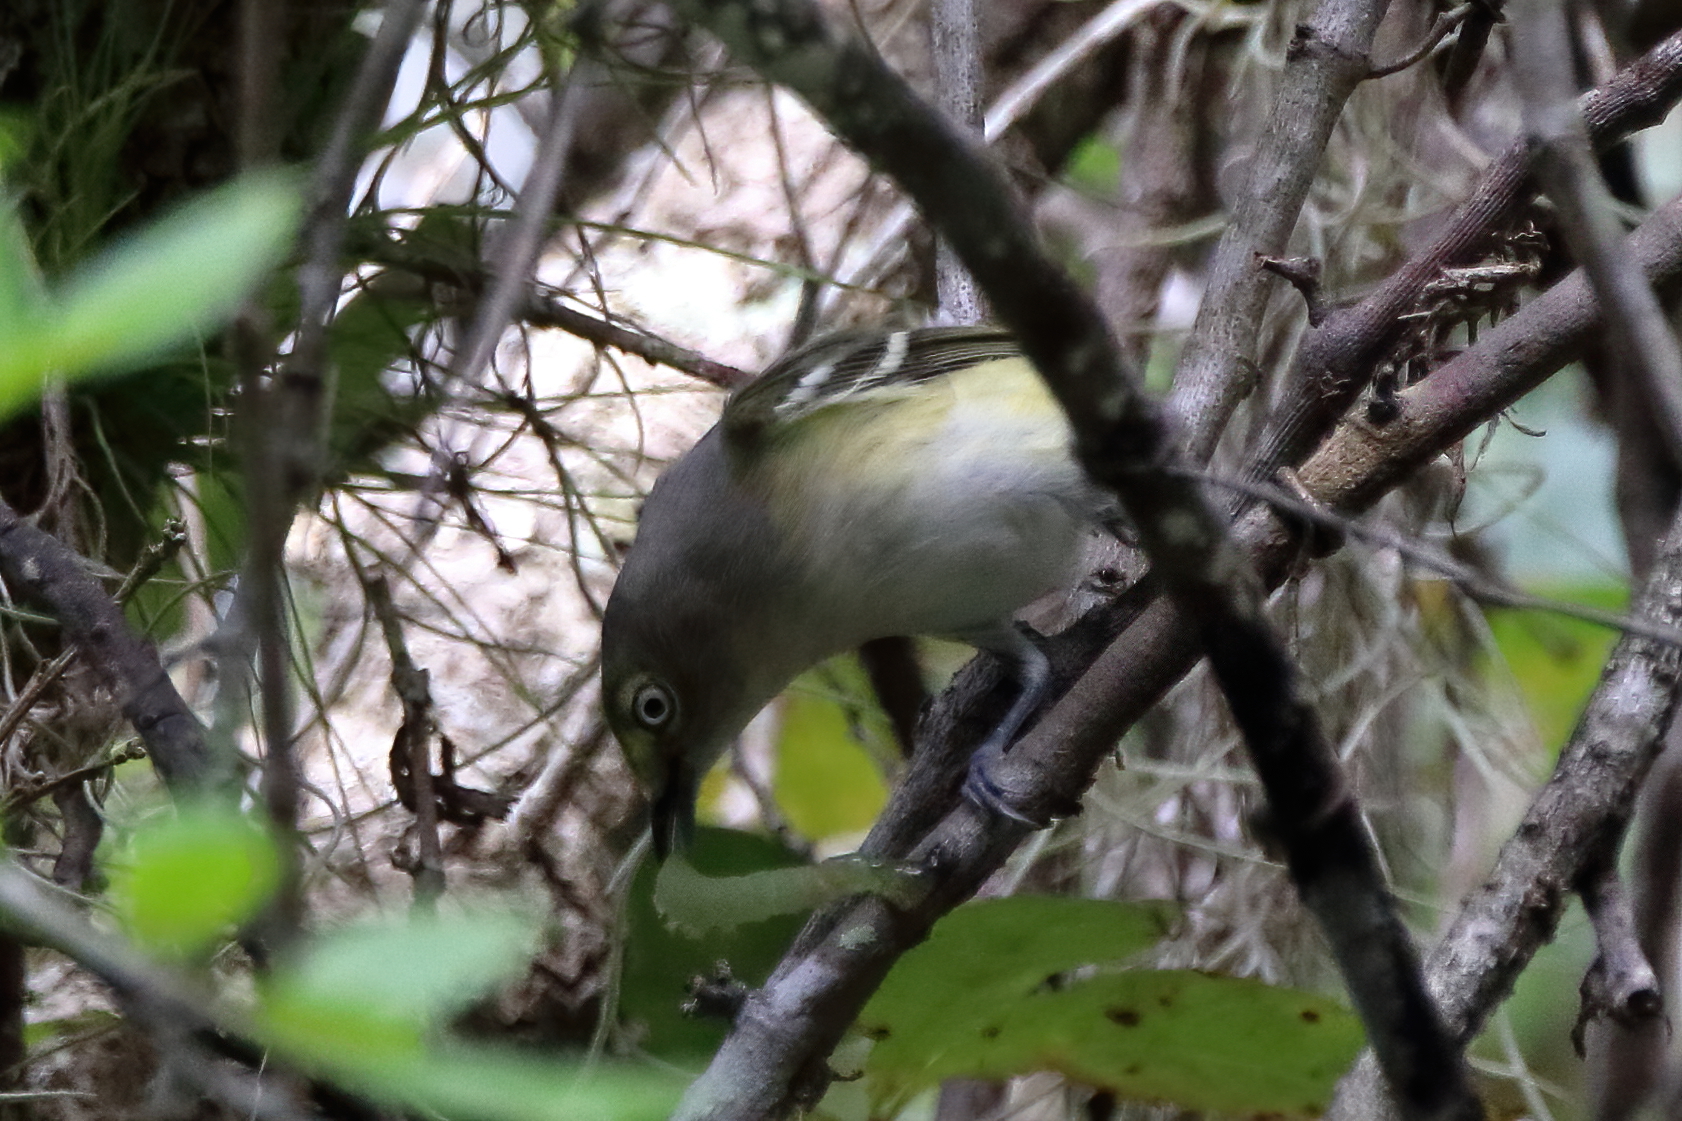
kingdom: Animalia
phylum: Chordata
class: Aves
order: Passeriformes
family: Vireonidae
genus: Vireo
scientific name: Vireo griseus
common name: White-eyed vireo
